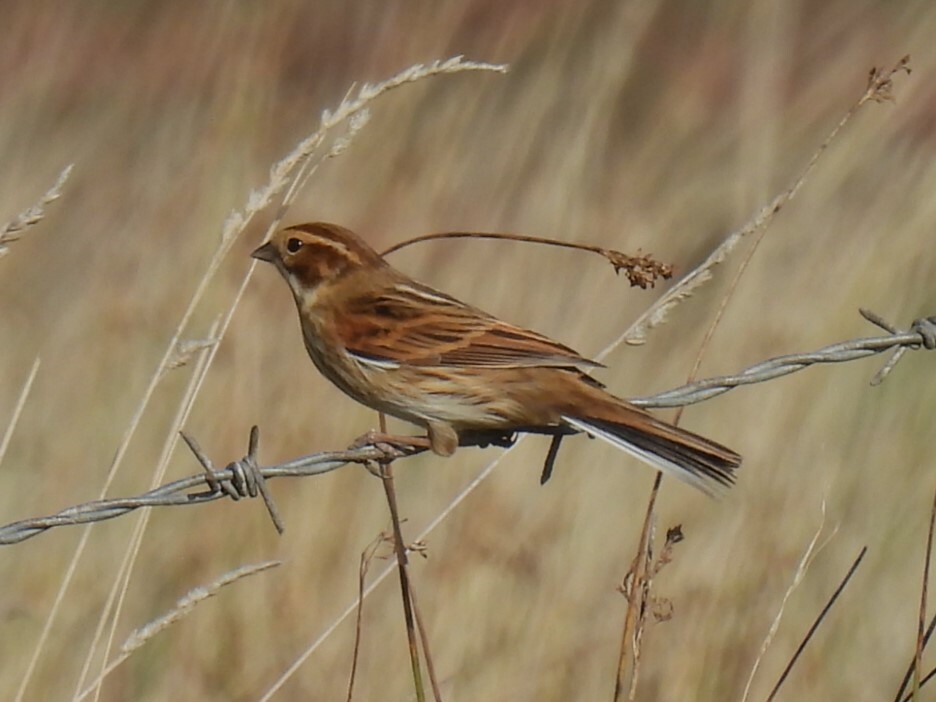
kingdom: Animalia
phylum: Chordata
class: Aves
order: Passeriformes
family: Emberizidae
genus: Emberiza
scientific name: Emberiza schoeniclus
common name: Reed bunting
